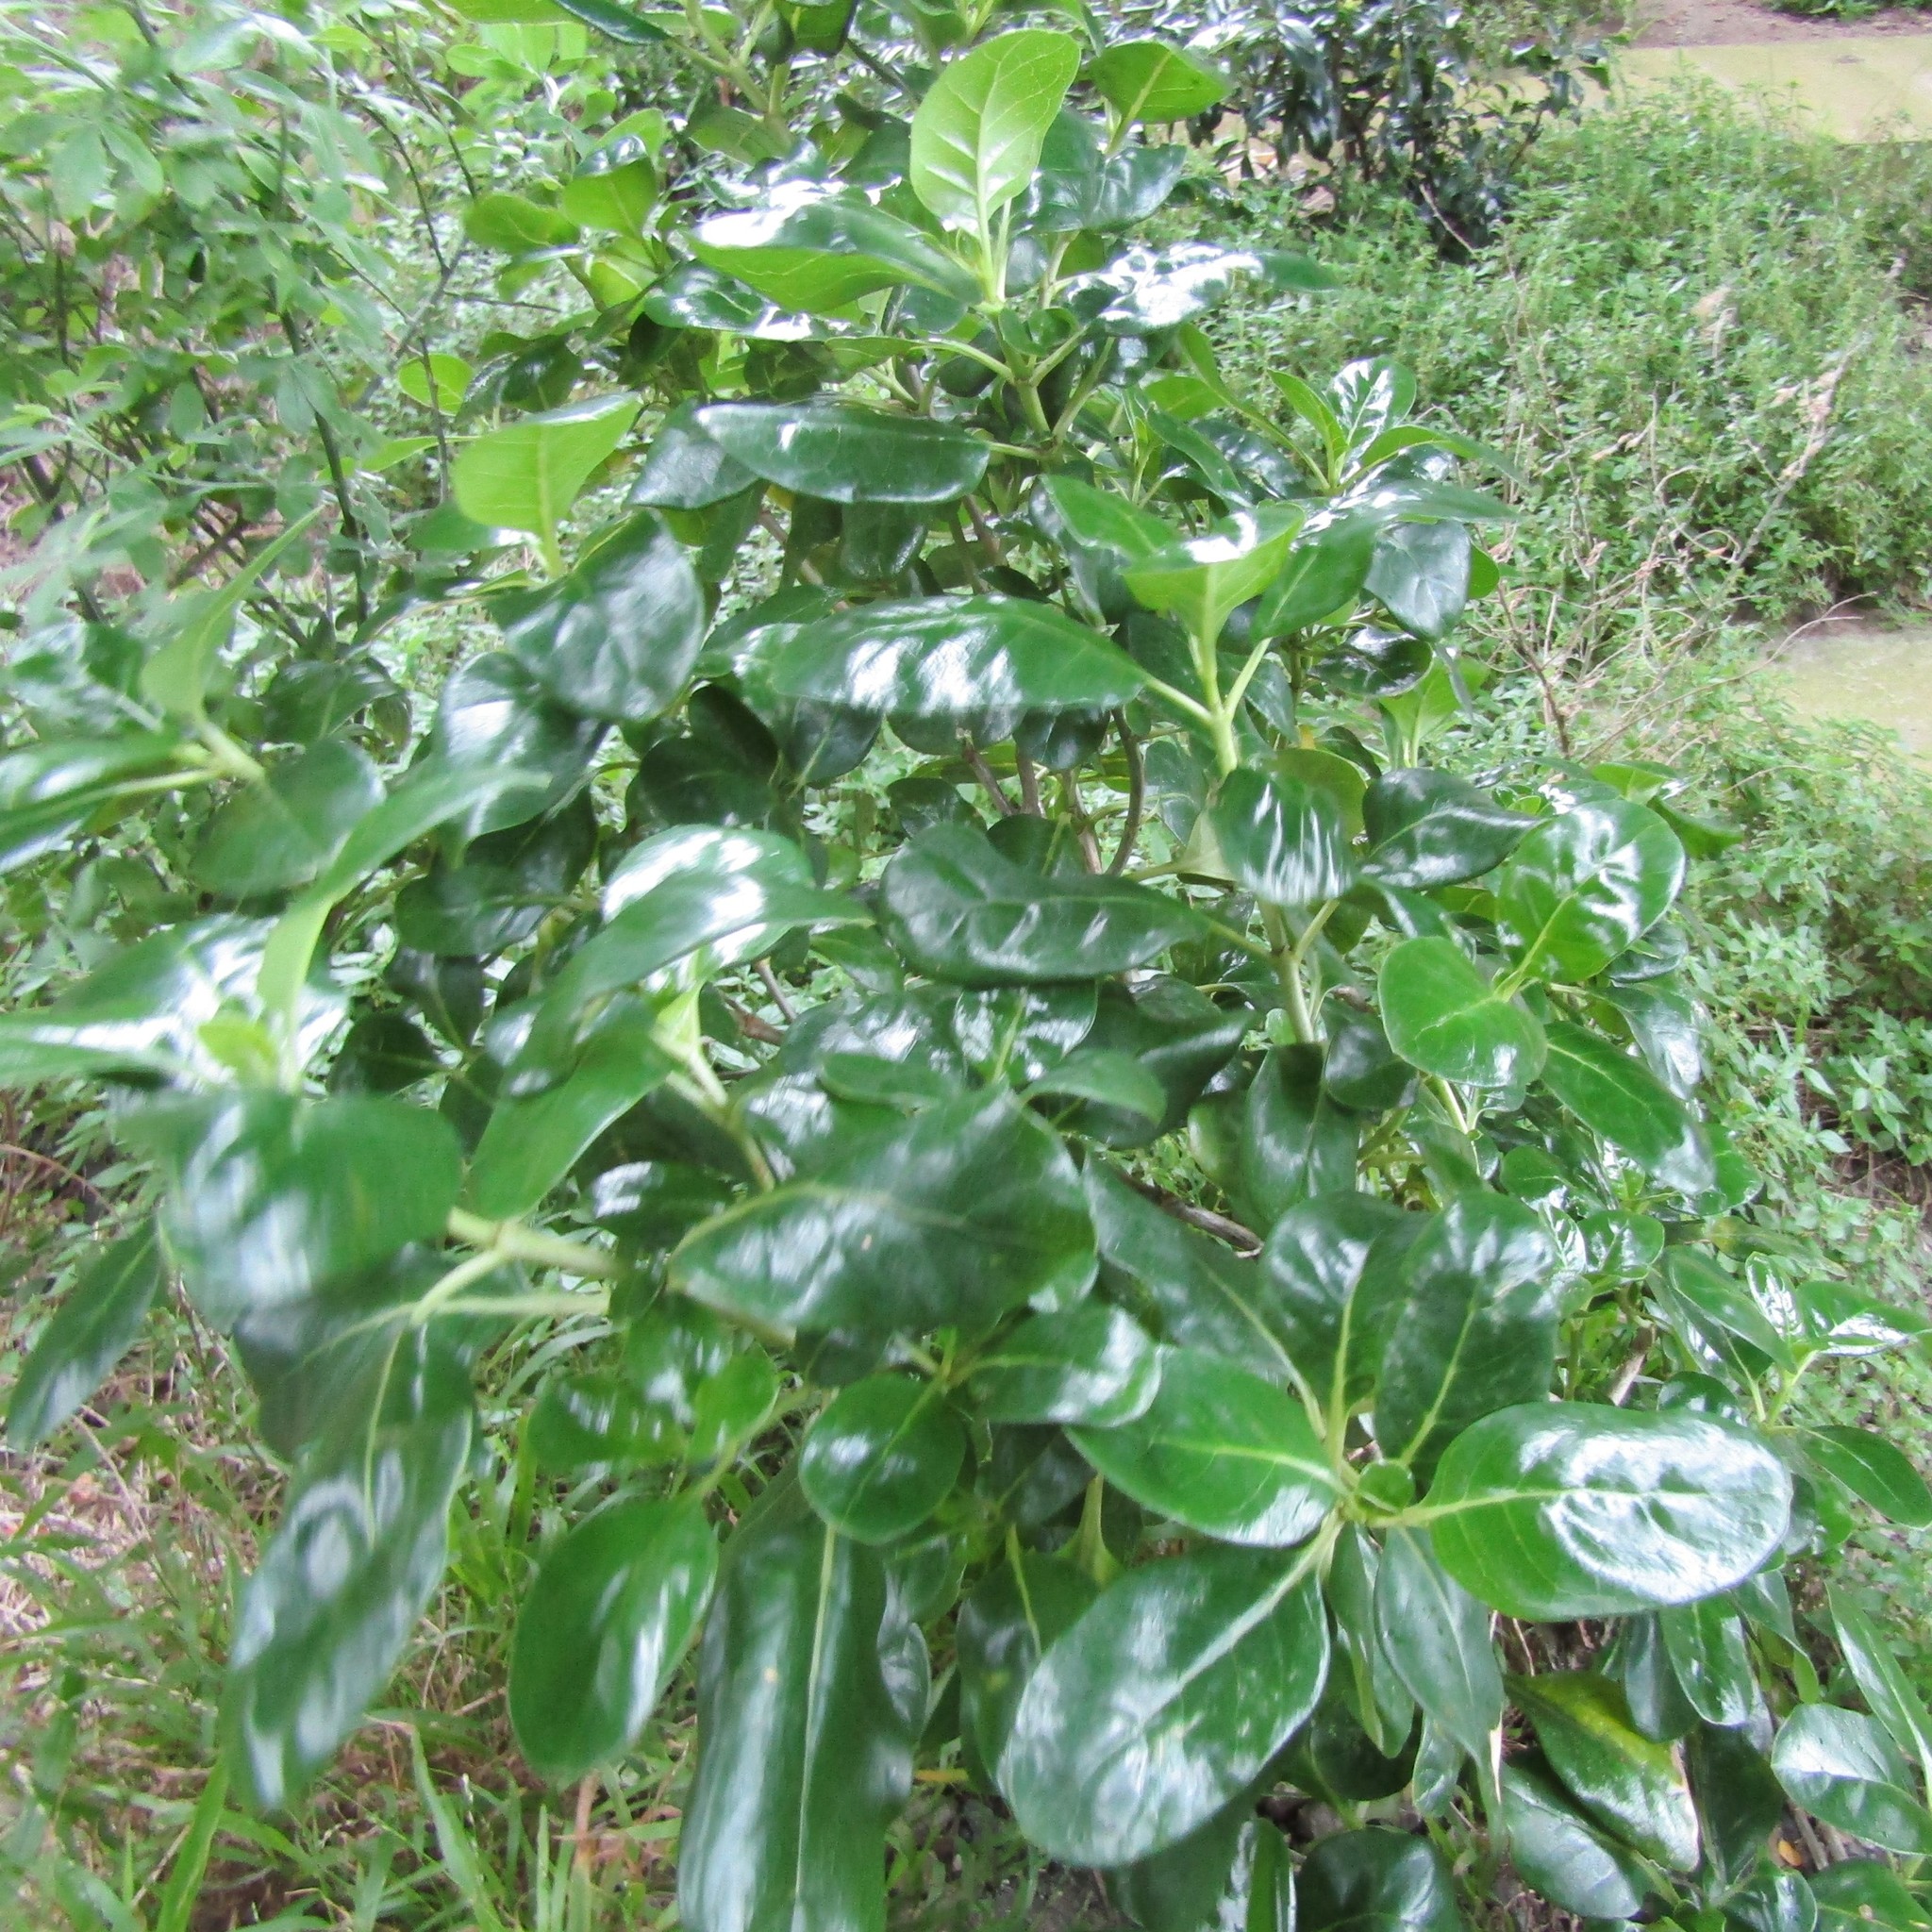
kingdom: Plantae
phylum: Tracheophyta
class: Magnoliopsida
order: Gentianales
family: Rubiaceae
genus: Coprosma
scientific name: Coprosma repens
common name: Tree bedstraw
